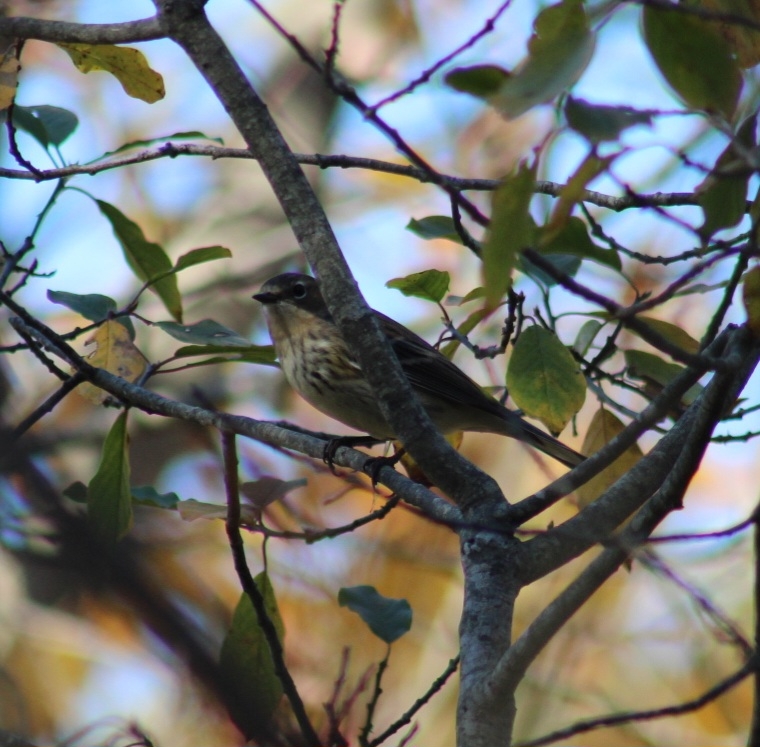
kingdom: Animalia
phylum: Chordata
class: Aves
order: Passeriformes
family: Parulidae
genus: Setophaga
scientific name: Setophaga coronata
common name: Myrtle warbler
